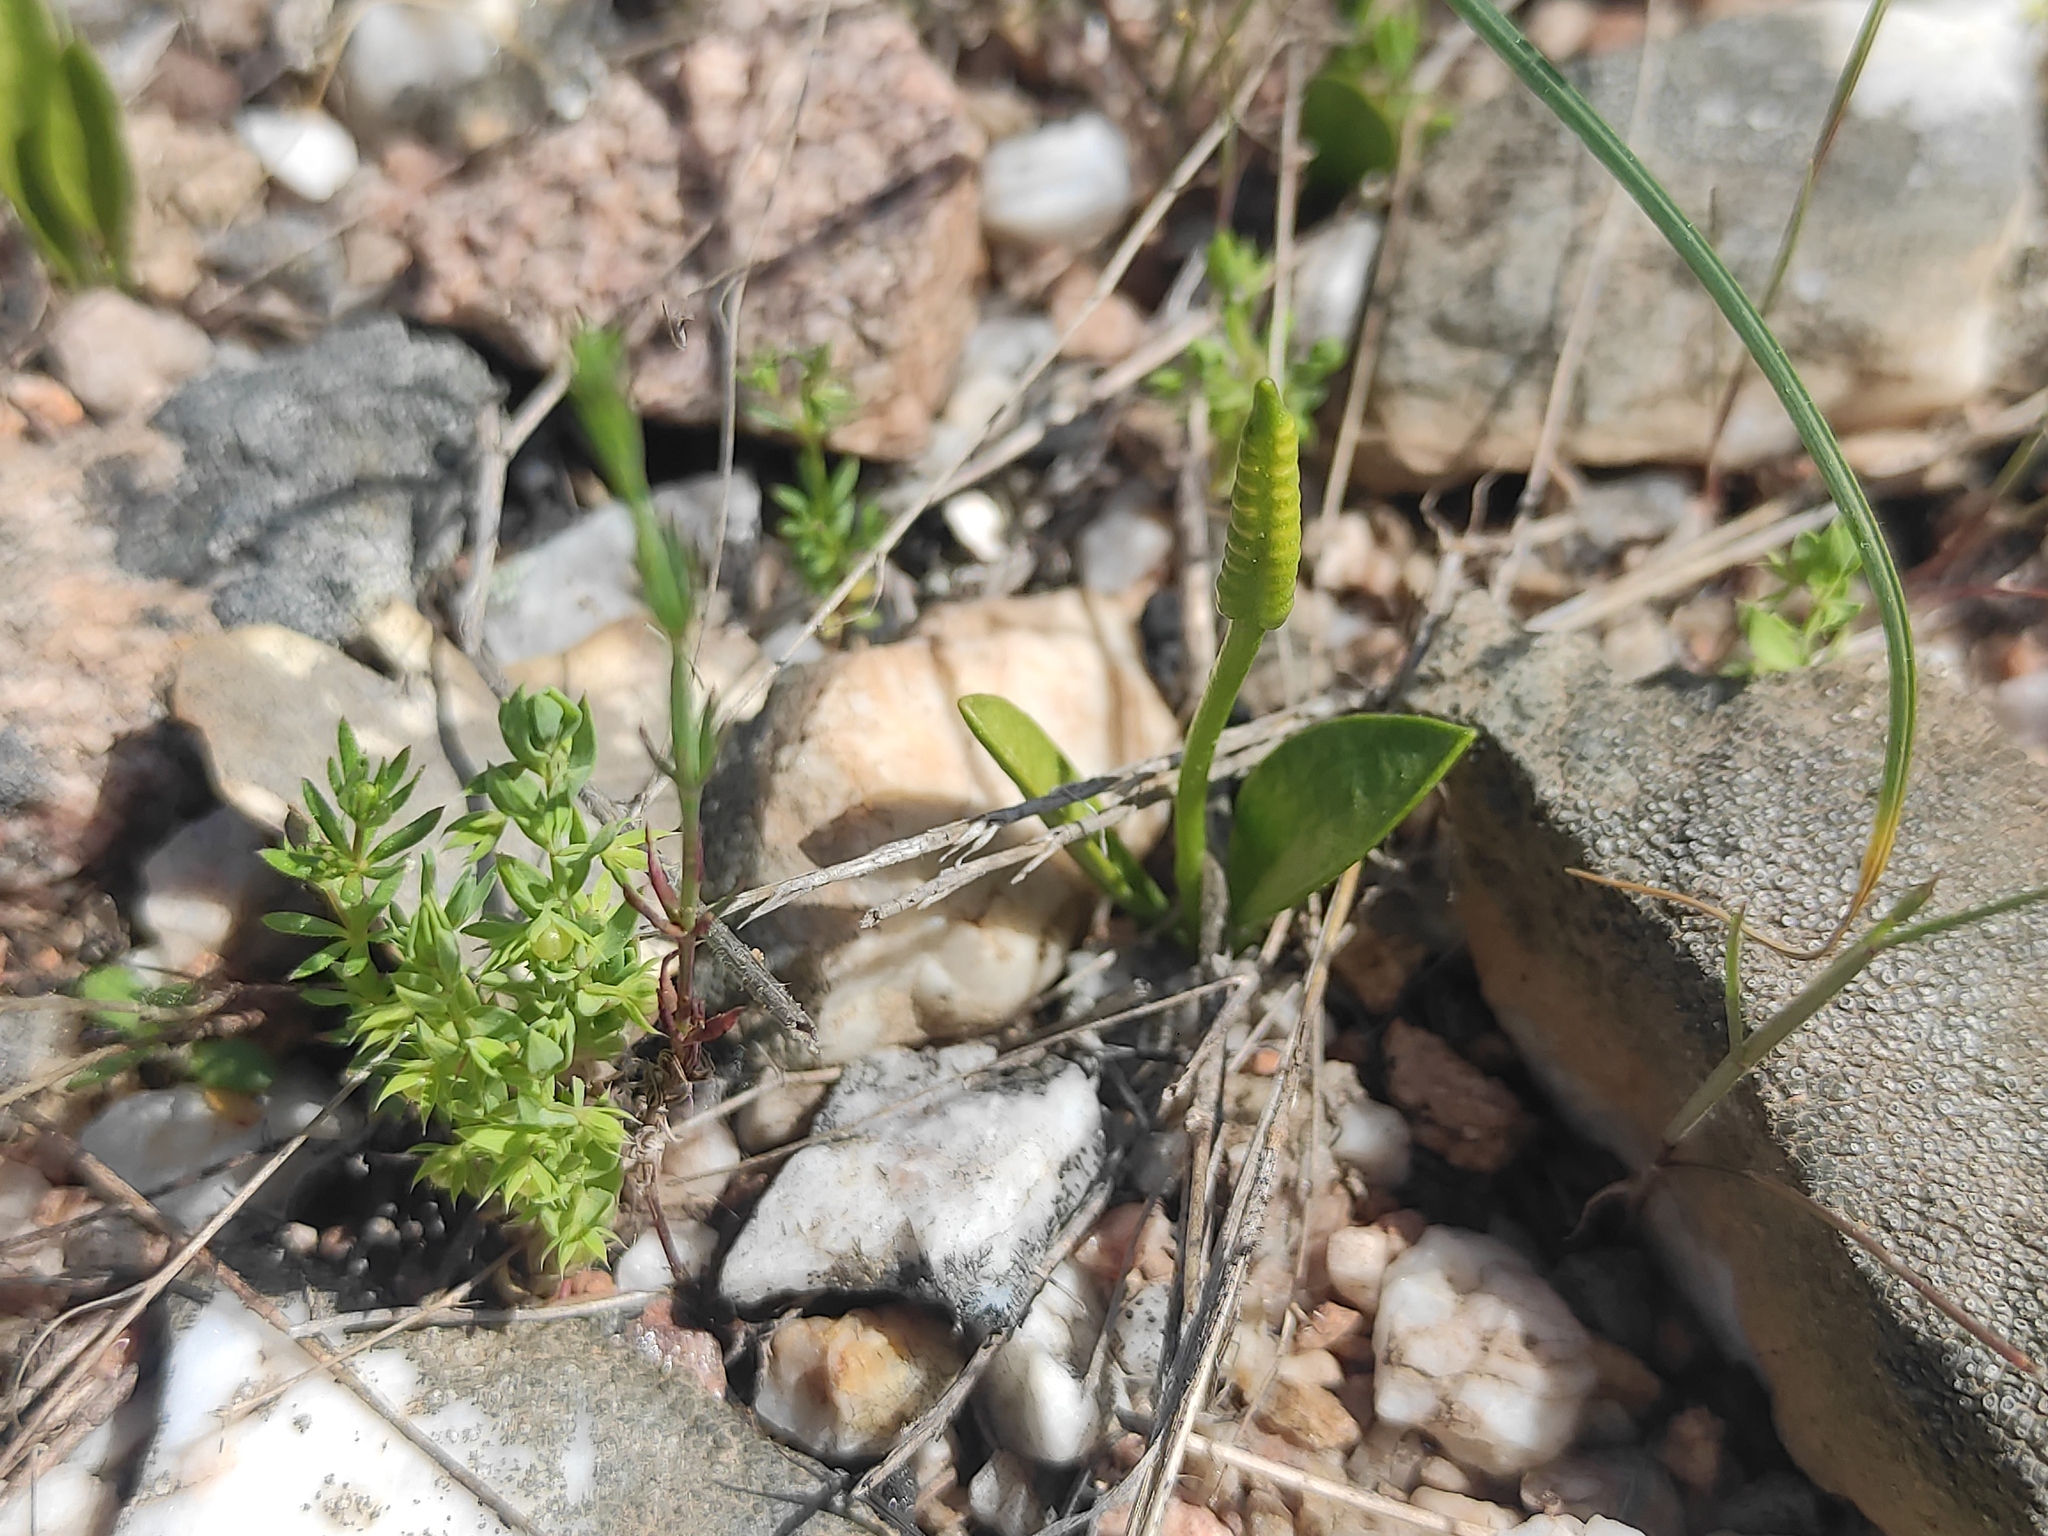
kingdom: Plantae
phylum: Tracheophyta
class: Polypodiopsida
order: Ophioglossales
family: Ophioglossaceae
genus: Ophioglossum
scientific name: Ophioglossum azoricum
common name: Small adder's-tongue
